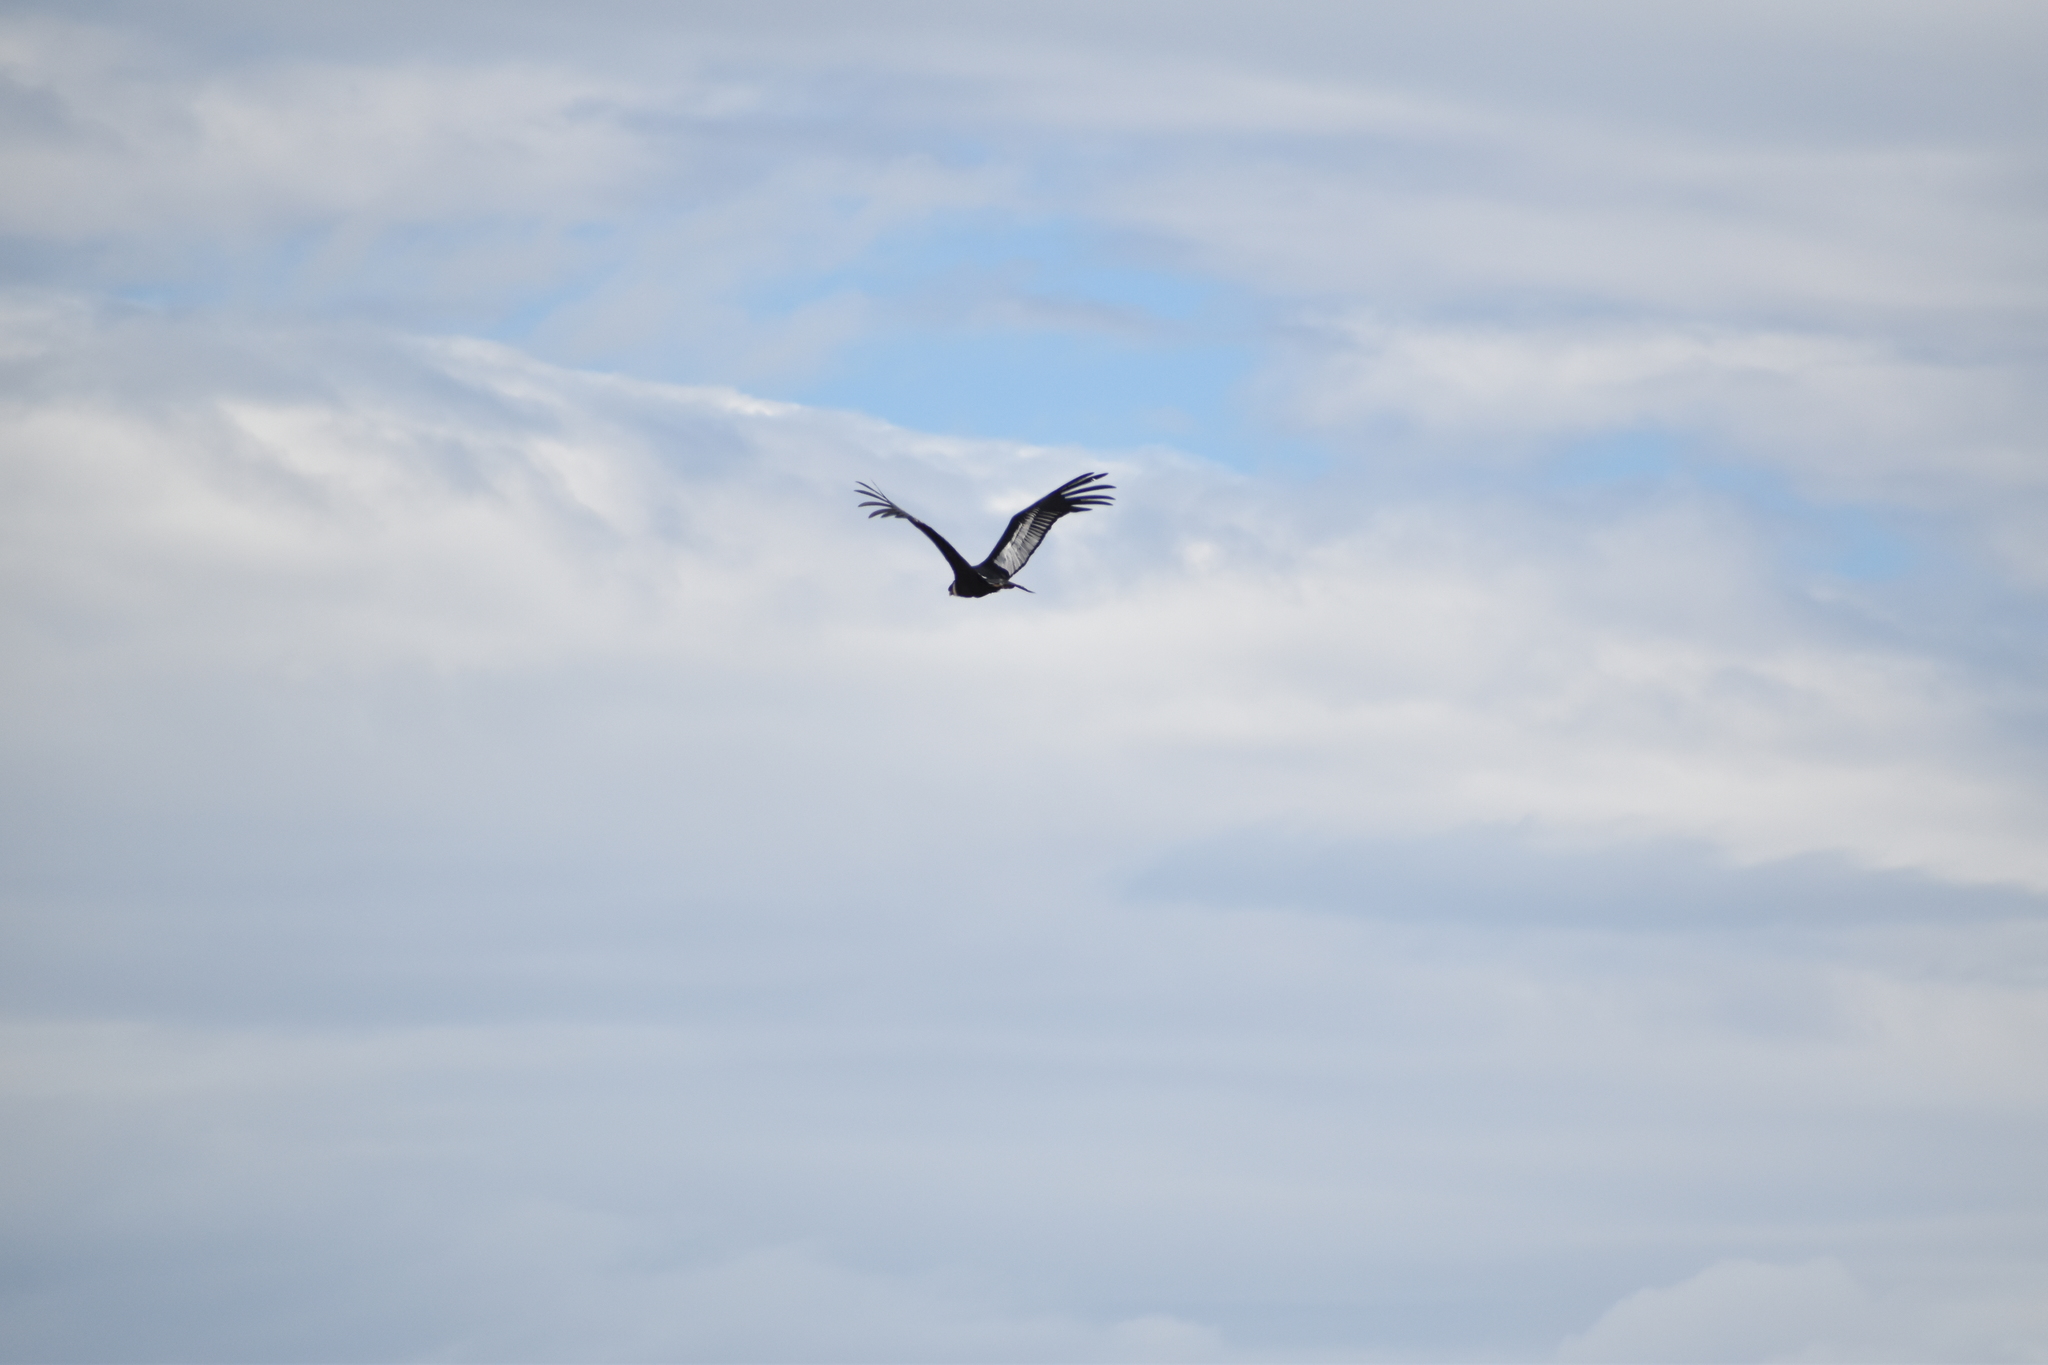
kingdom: Animalia
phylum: Chordata
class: Aves
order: Accipitriformes
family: Cathartidae
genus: Vultur
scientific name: Vultur gryphus
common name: Andean condor
